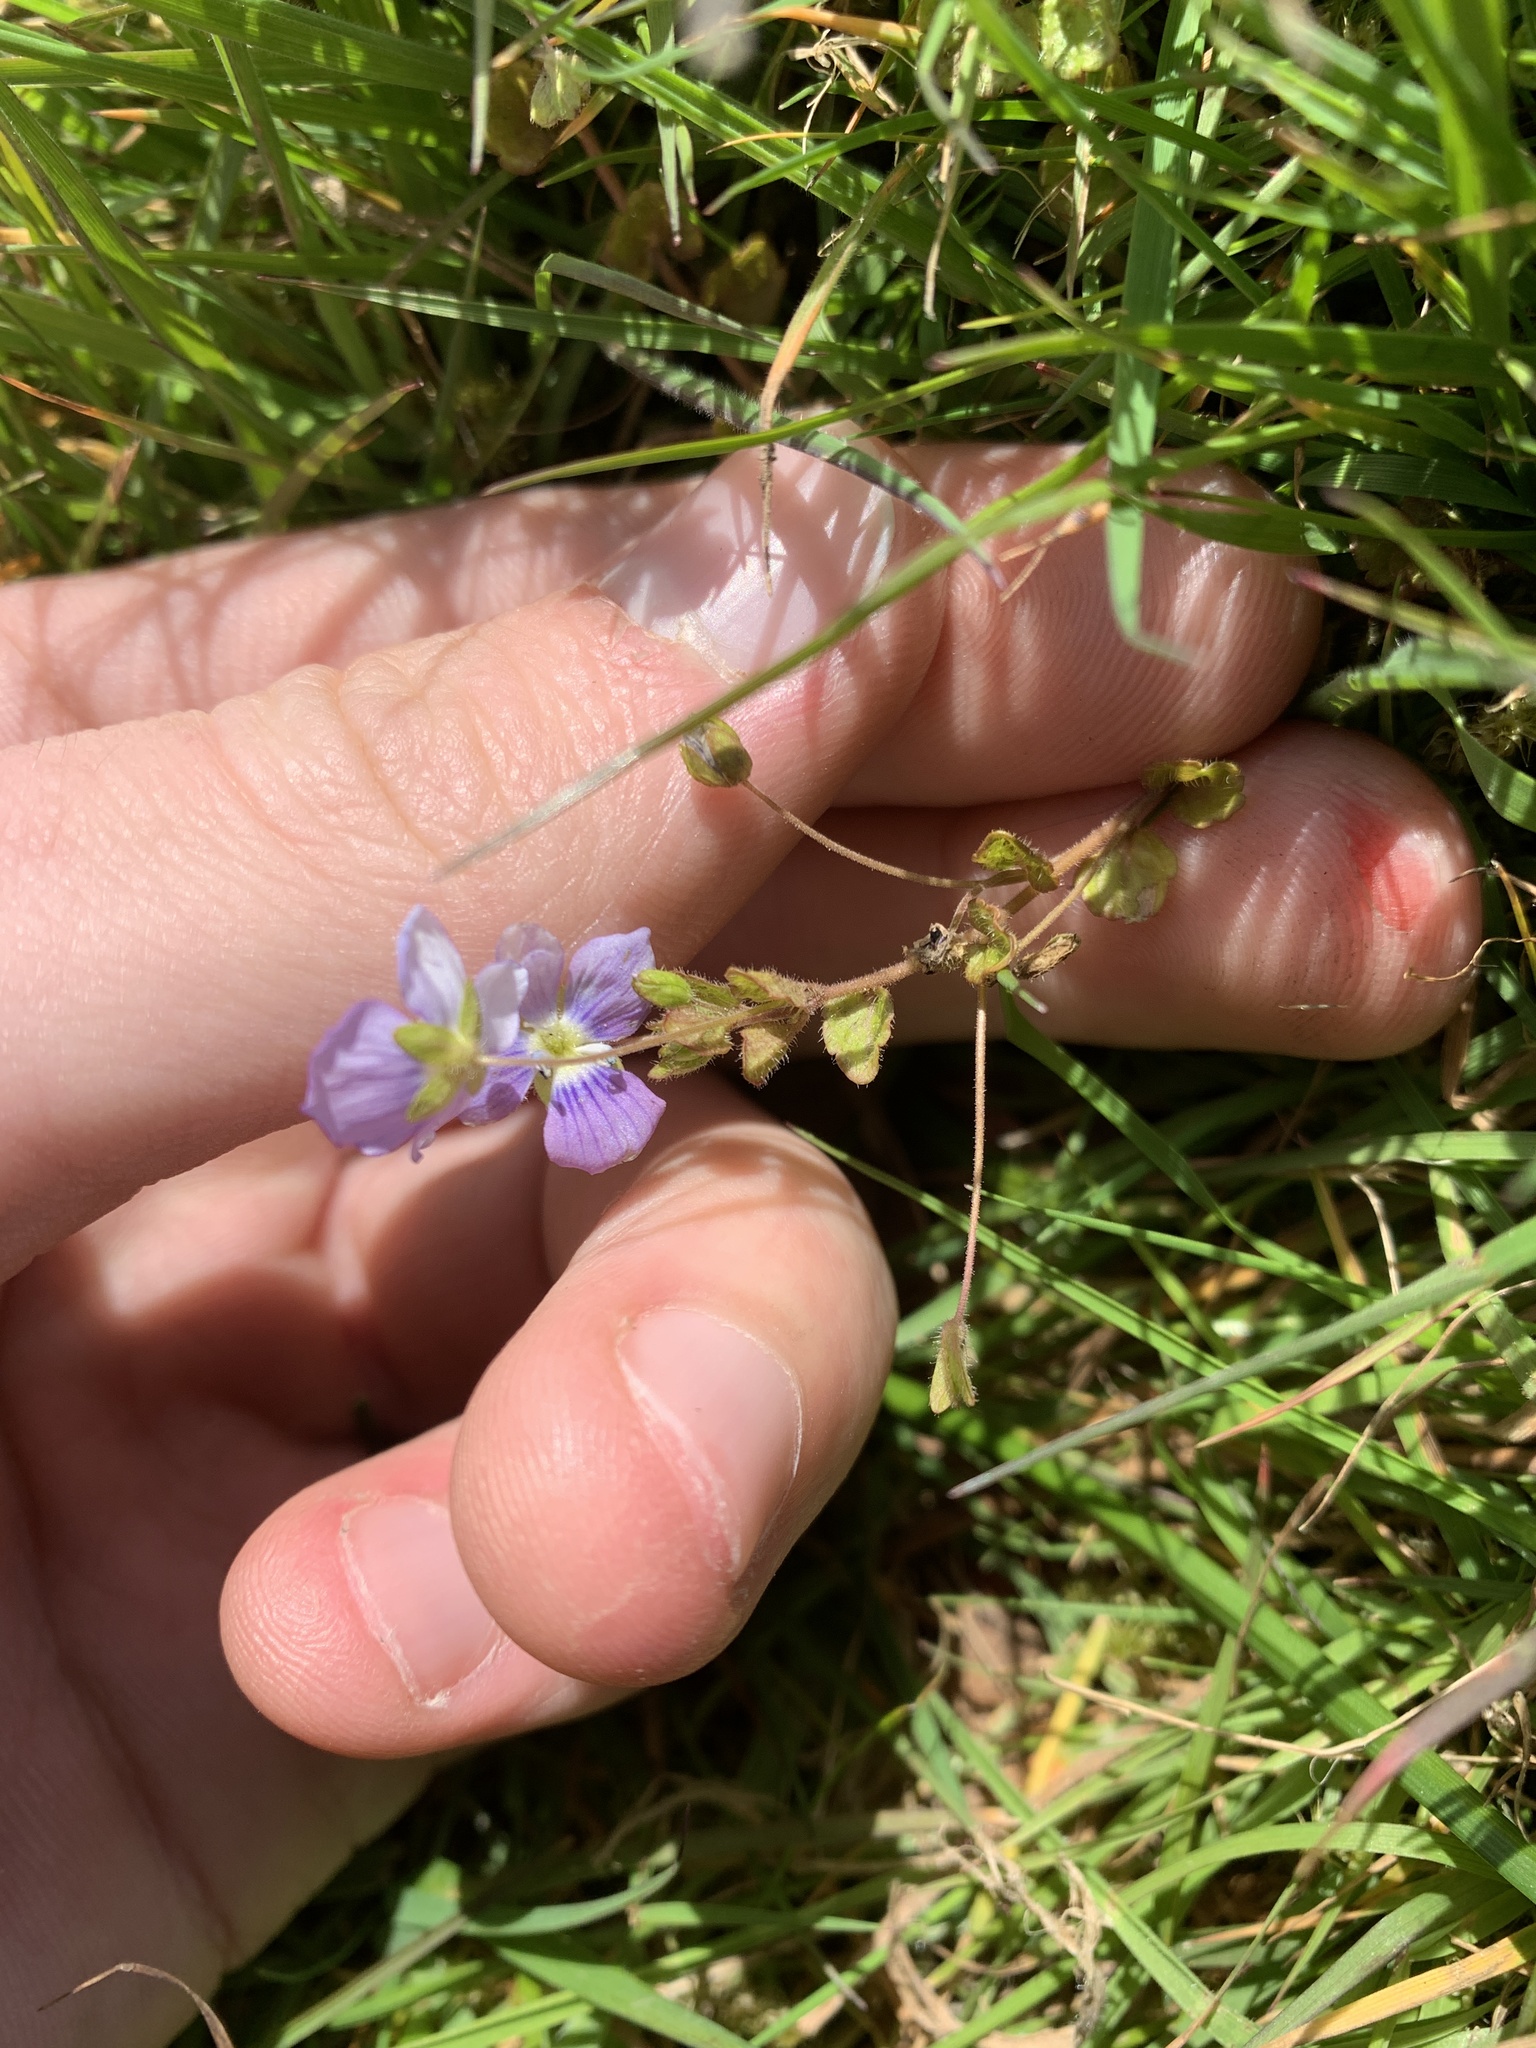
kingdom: Plantae
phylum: Tracheophyta
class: Magnoliopsida
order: Lamiales
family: Plantaginaceae
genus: Veronica
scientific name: Veronica filiformis
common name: Slender speedwell
